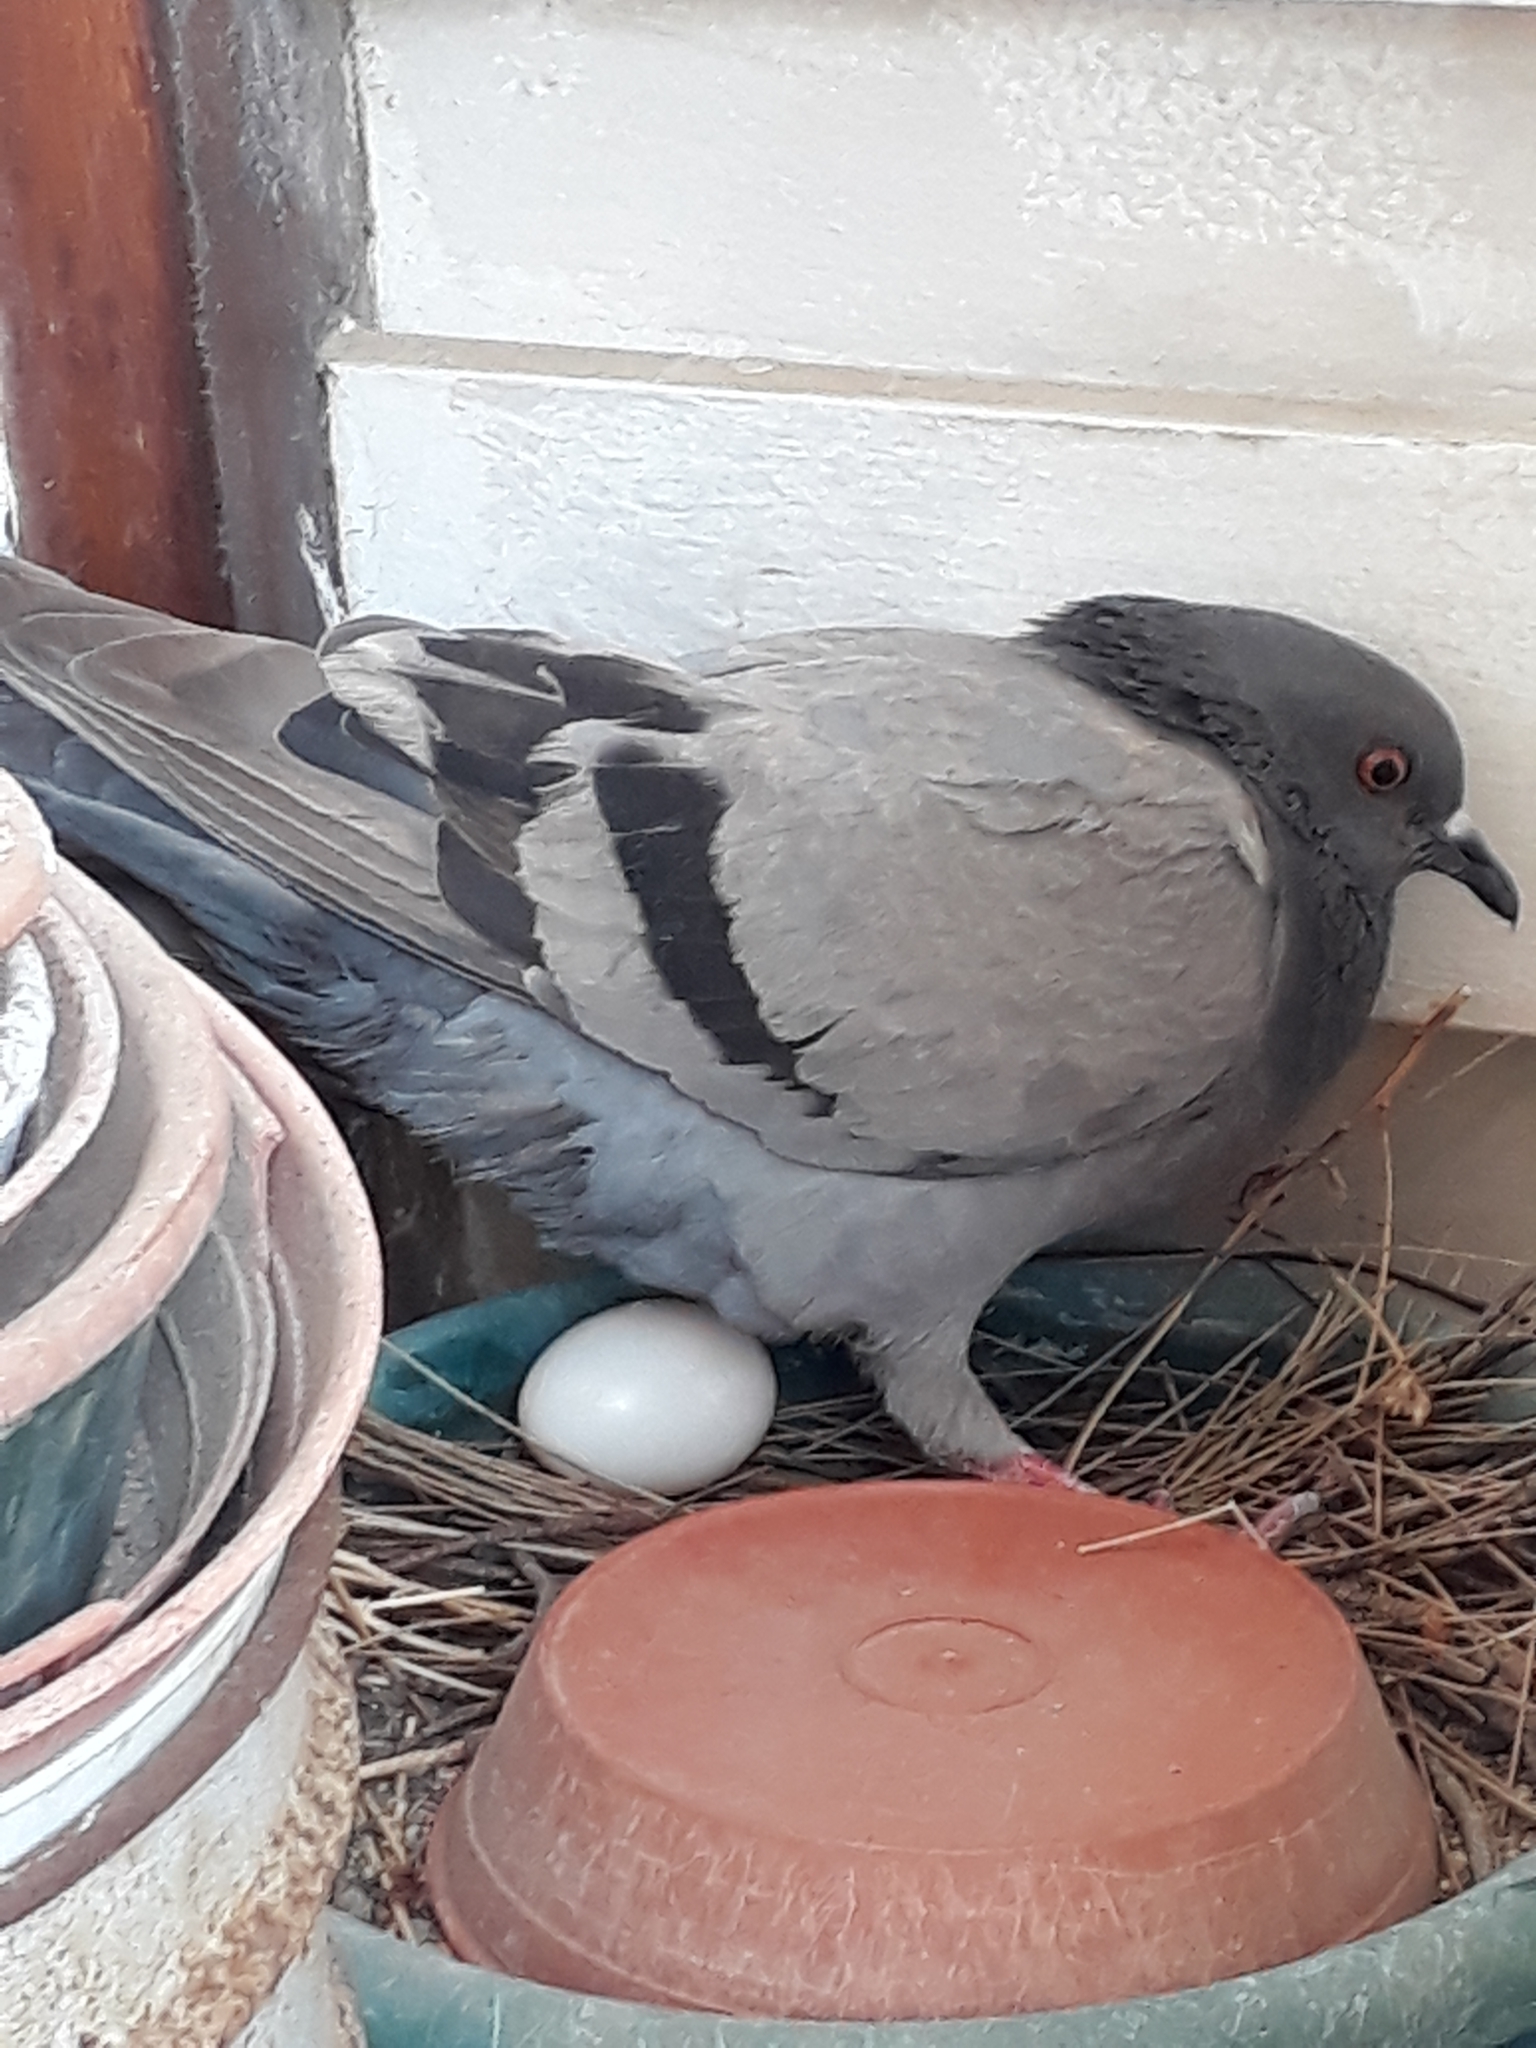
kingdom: Animalia
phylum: Chordata
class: Aves
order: Columbiformes
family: Columbidae
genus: Columba
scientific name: Columba livia
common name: Rock pigeon
